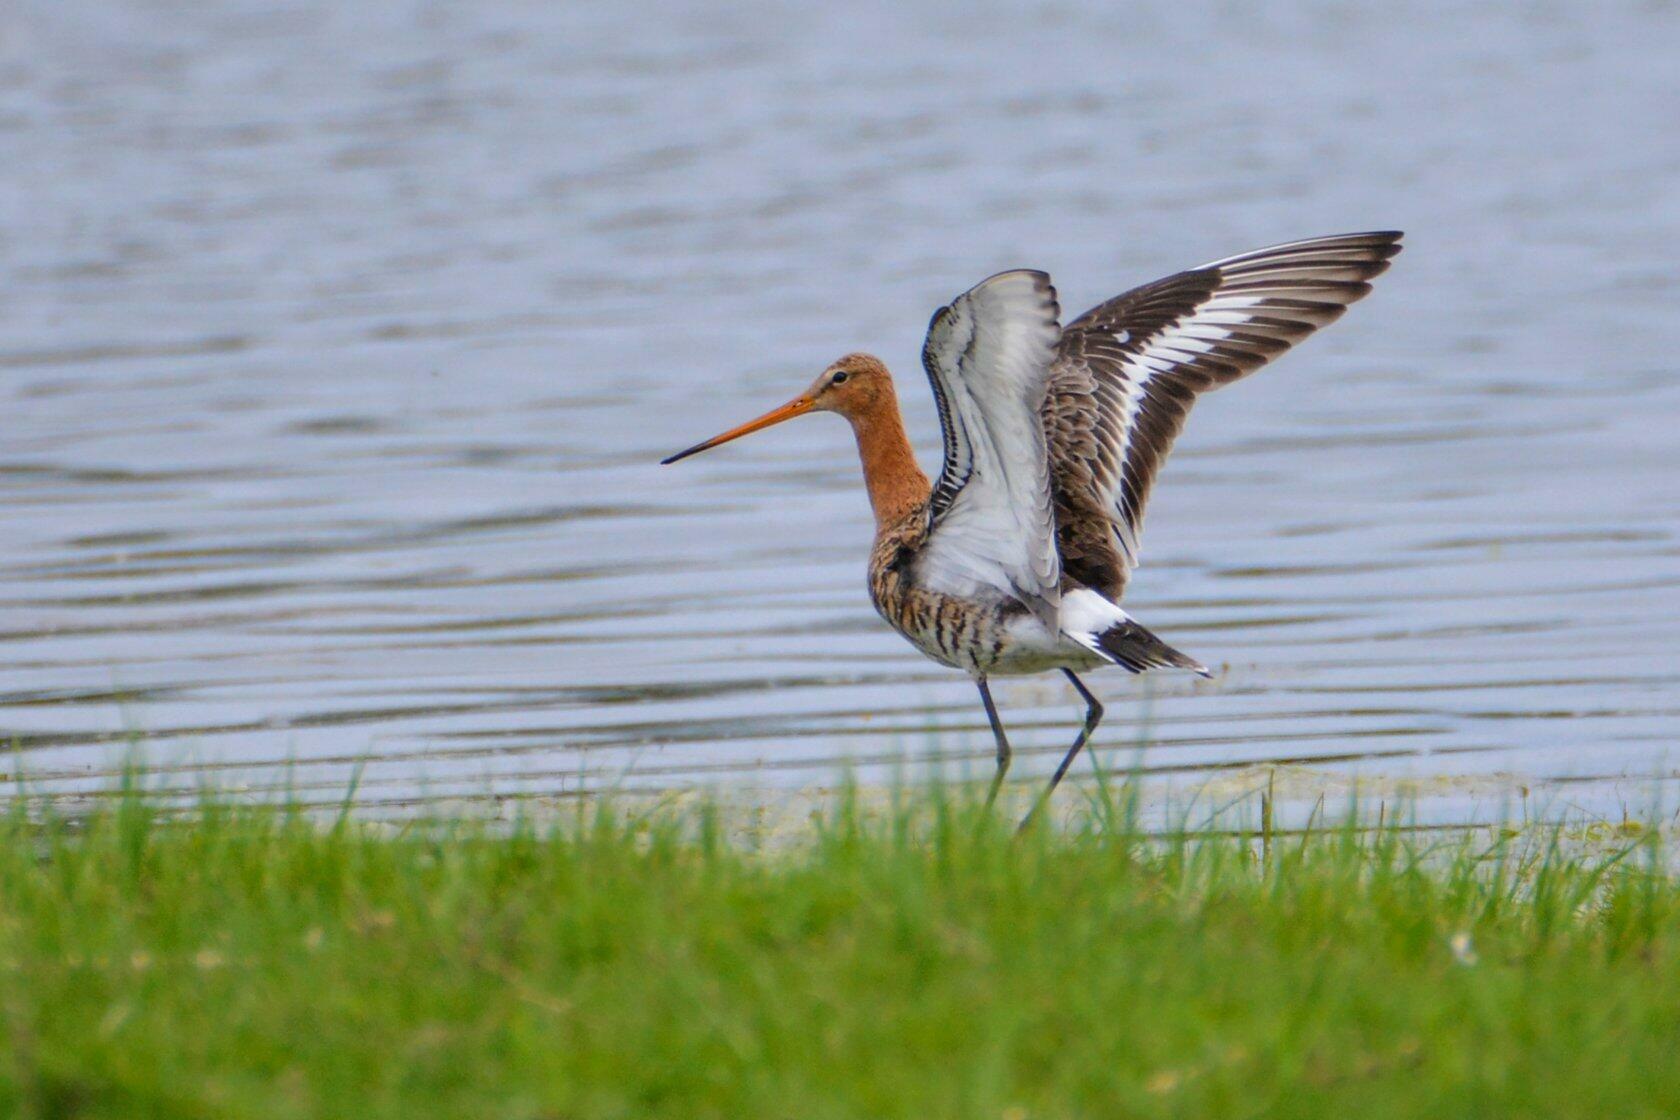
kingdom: Animalia
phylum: Chordata
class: Aves
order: Charadriiformes
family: Scolopacidae
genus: Limosa
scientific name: Limosa limosa
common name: Black-tailed godwit
